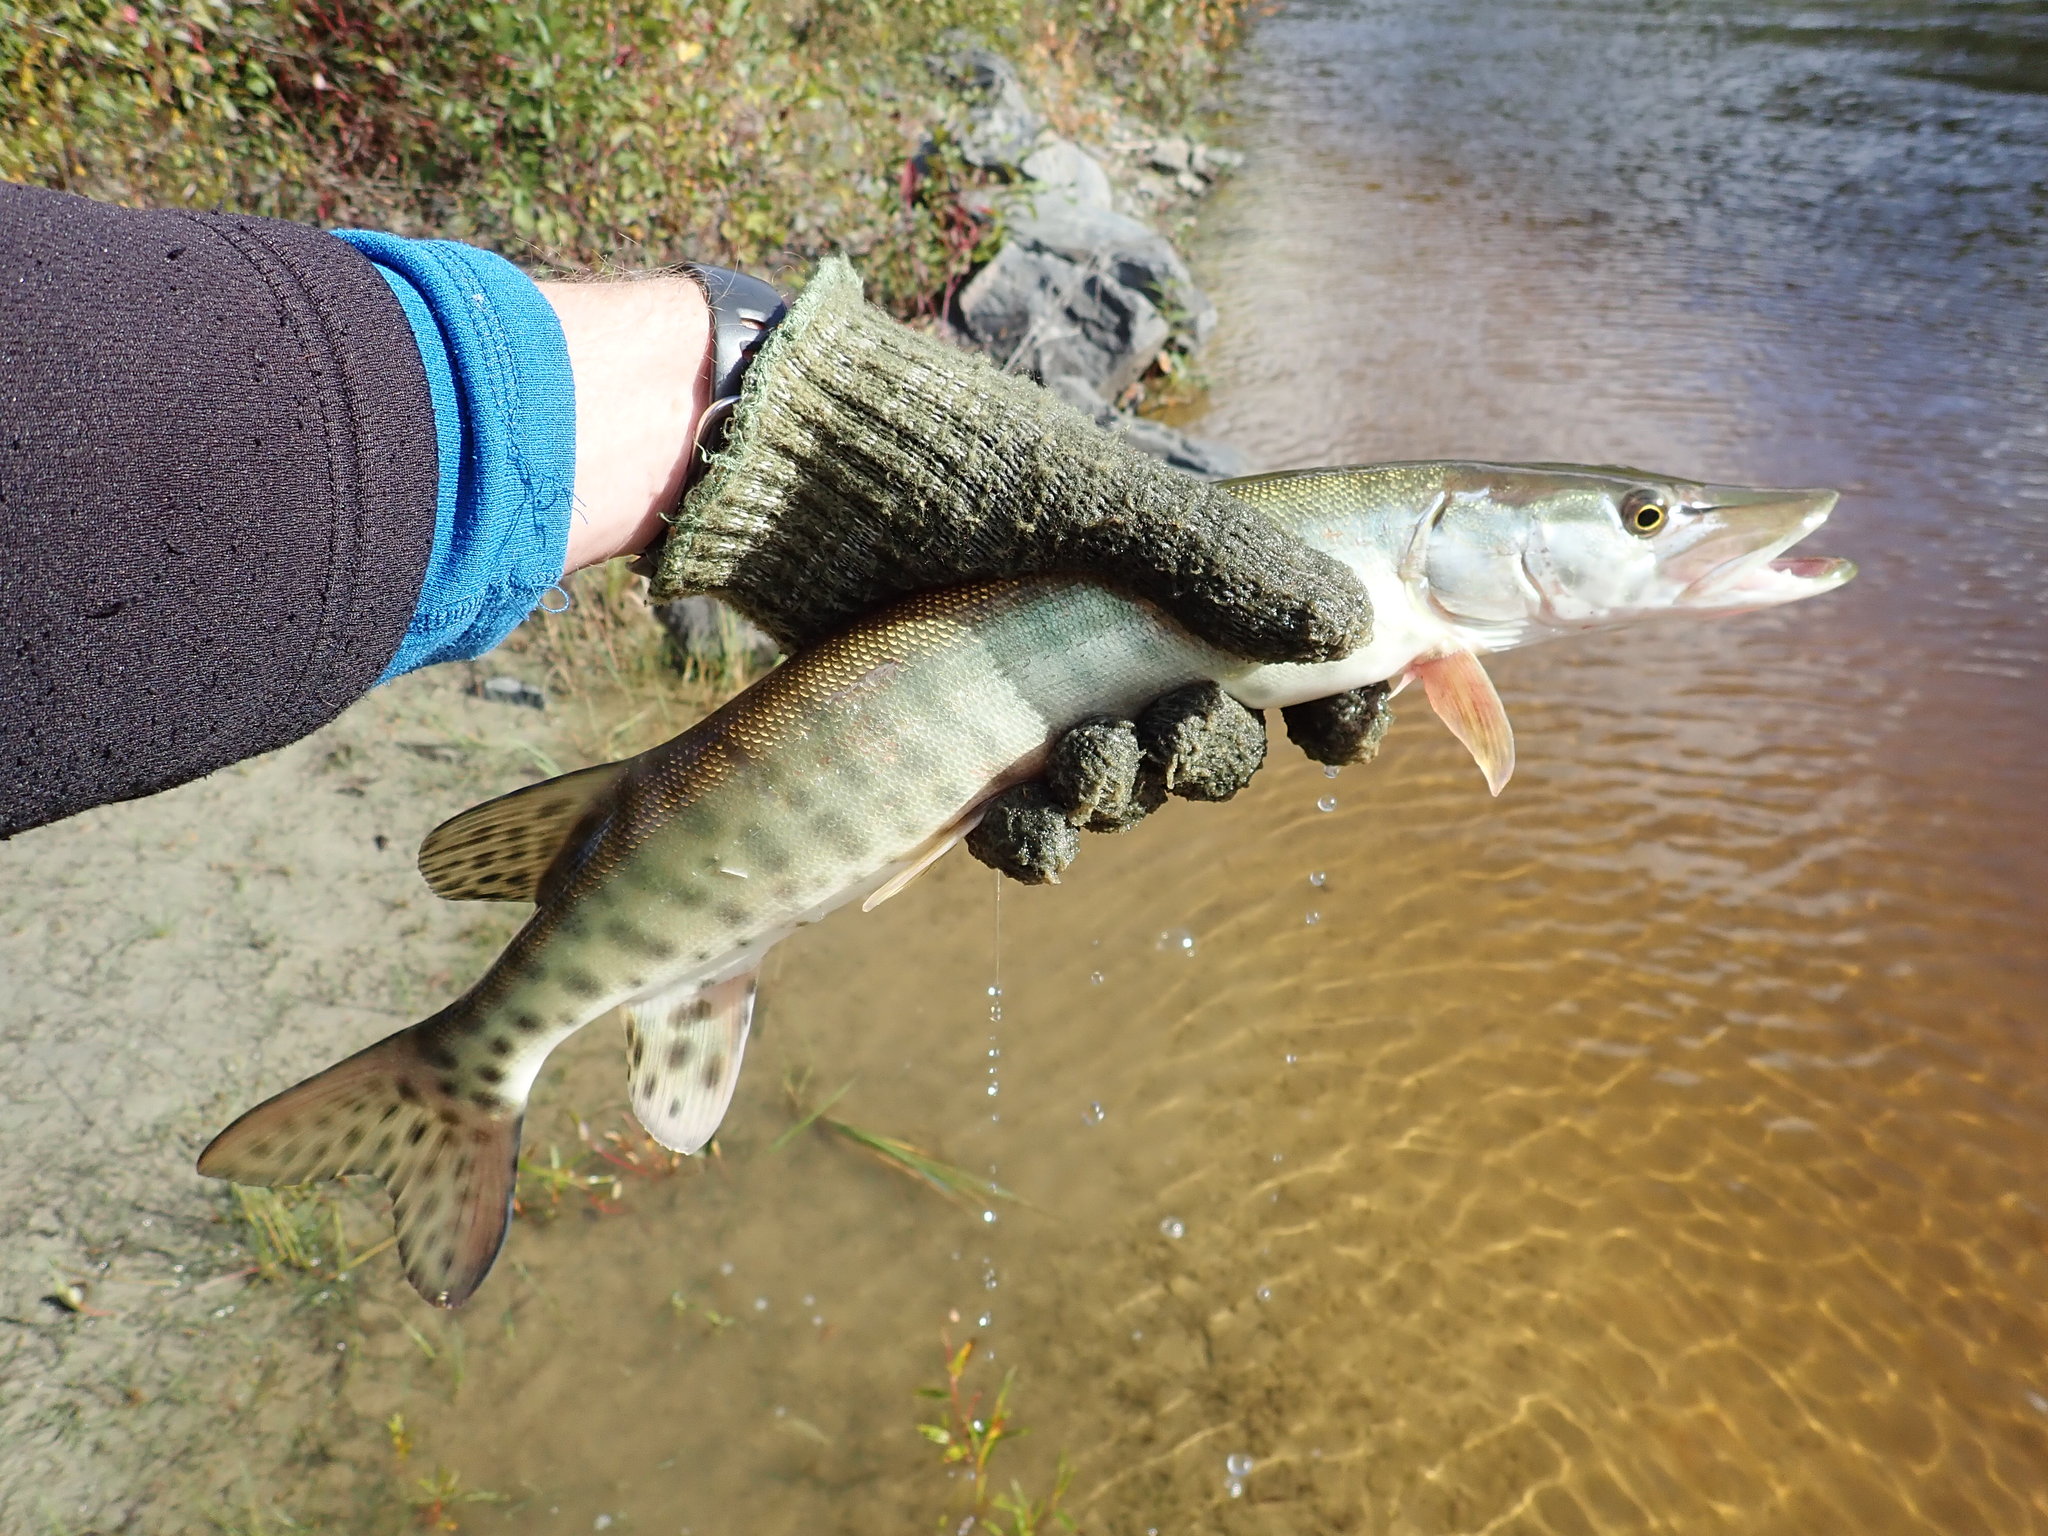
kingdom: Animalia
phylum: Chordata
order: Esociformes
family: Esocidae
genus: Esox
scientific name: Esox masquinongy
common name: Muskellunge
